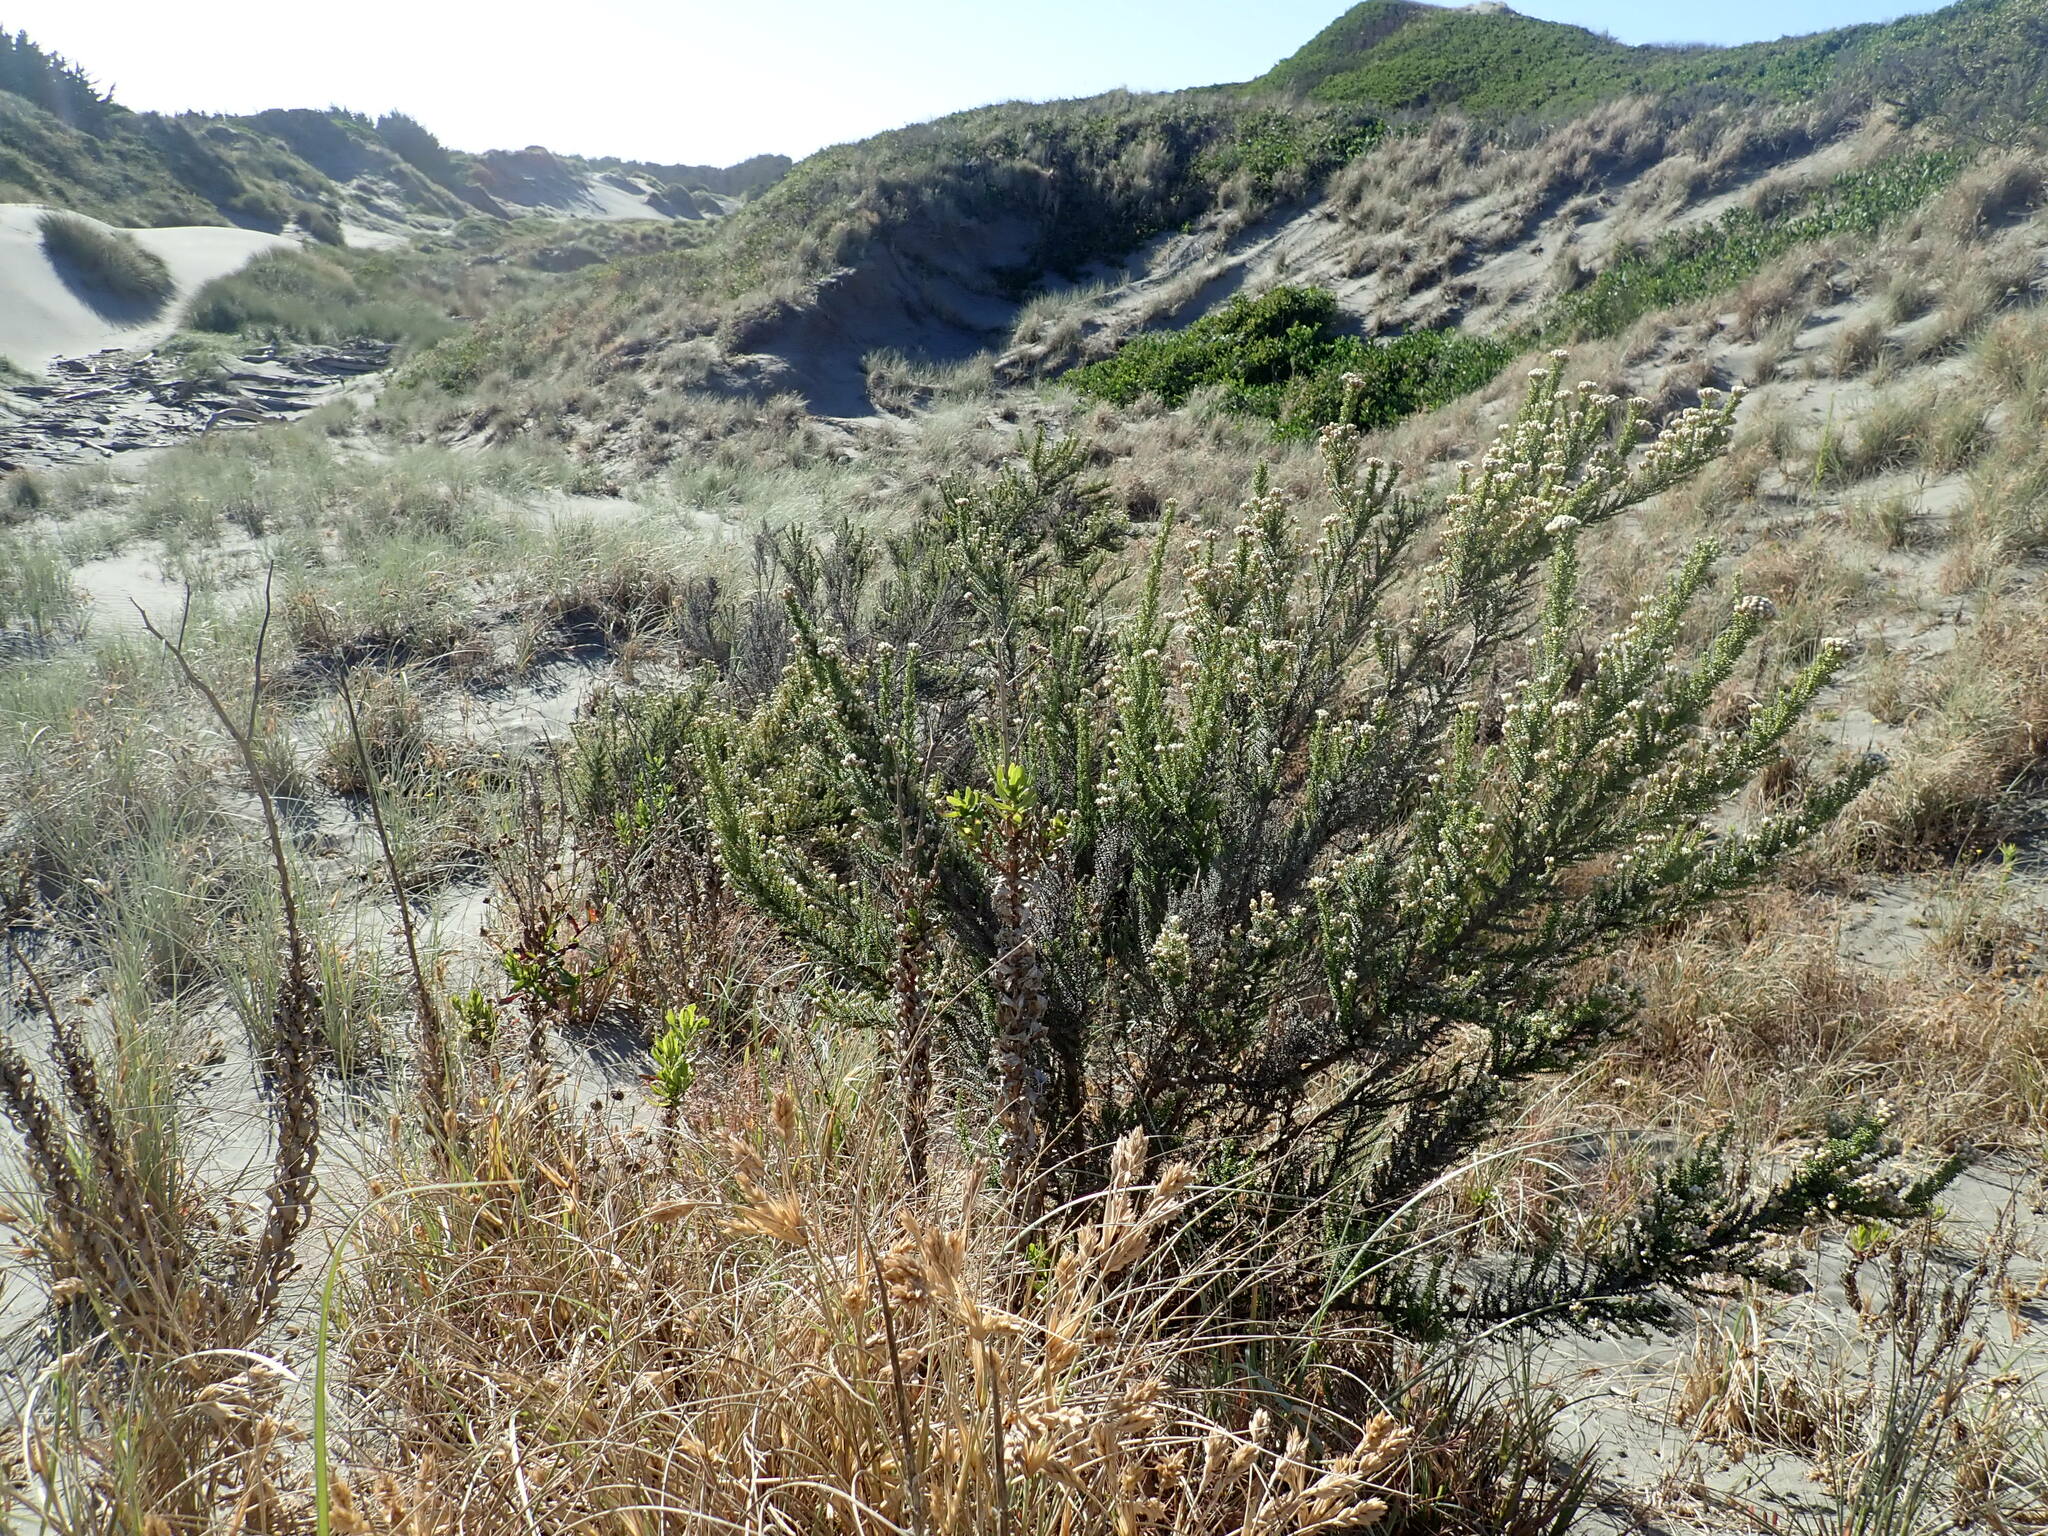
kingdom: Plantae
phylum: Tracheophyta
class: Magnoliopsida
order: Asterales
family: Asteraceae
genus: Ozothamnus
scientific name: Ozothamnus leptophyllus
